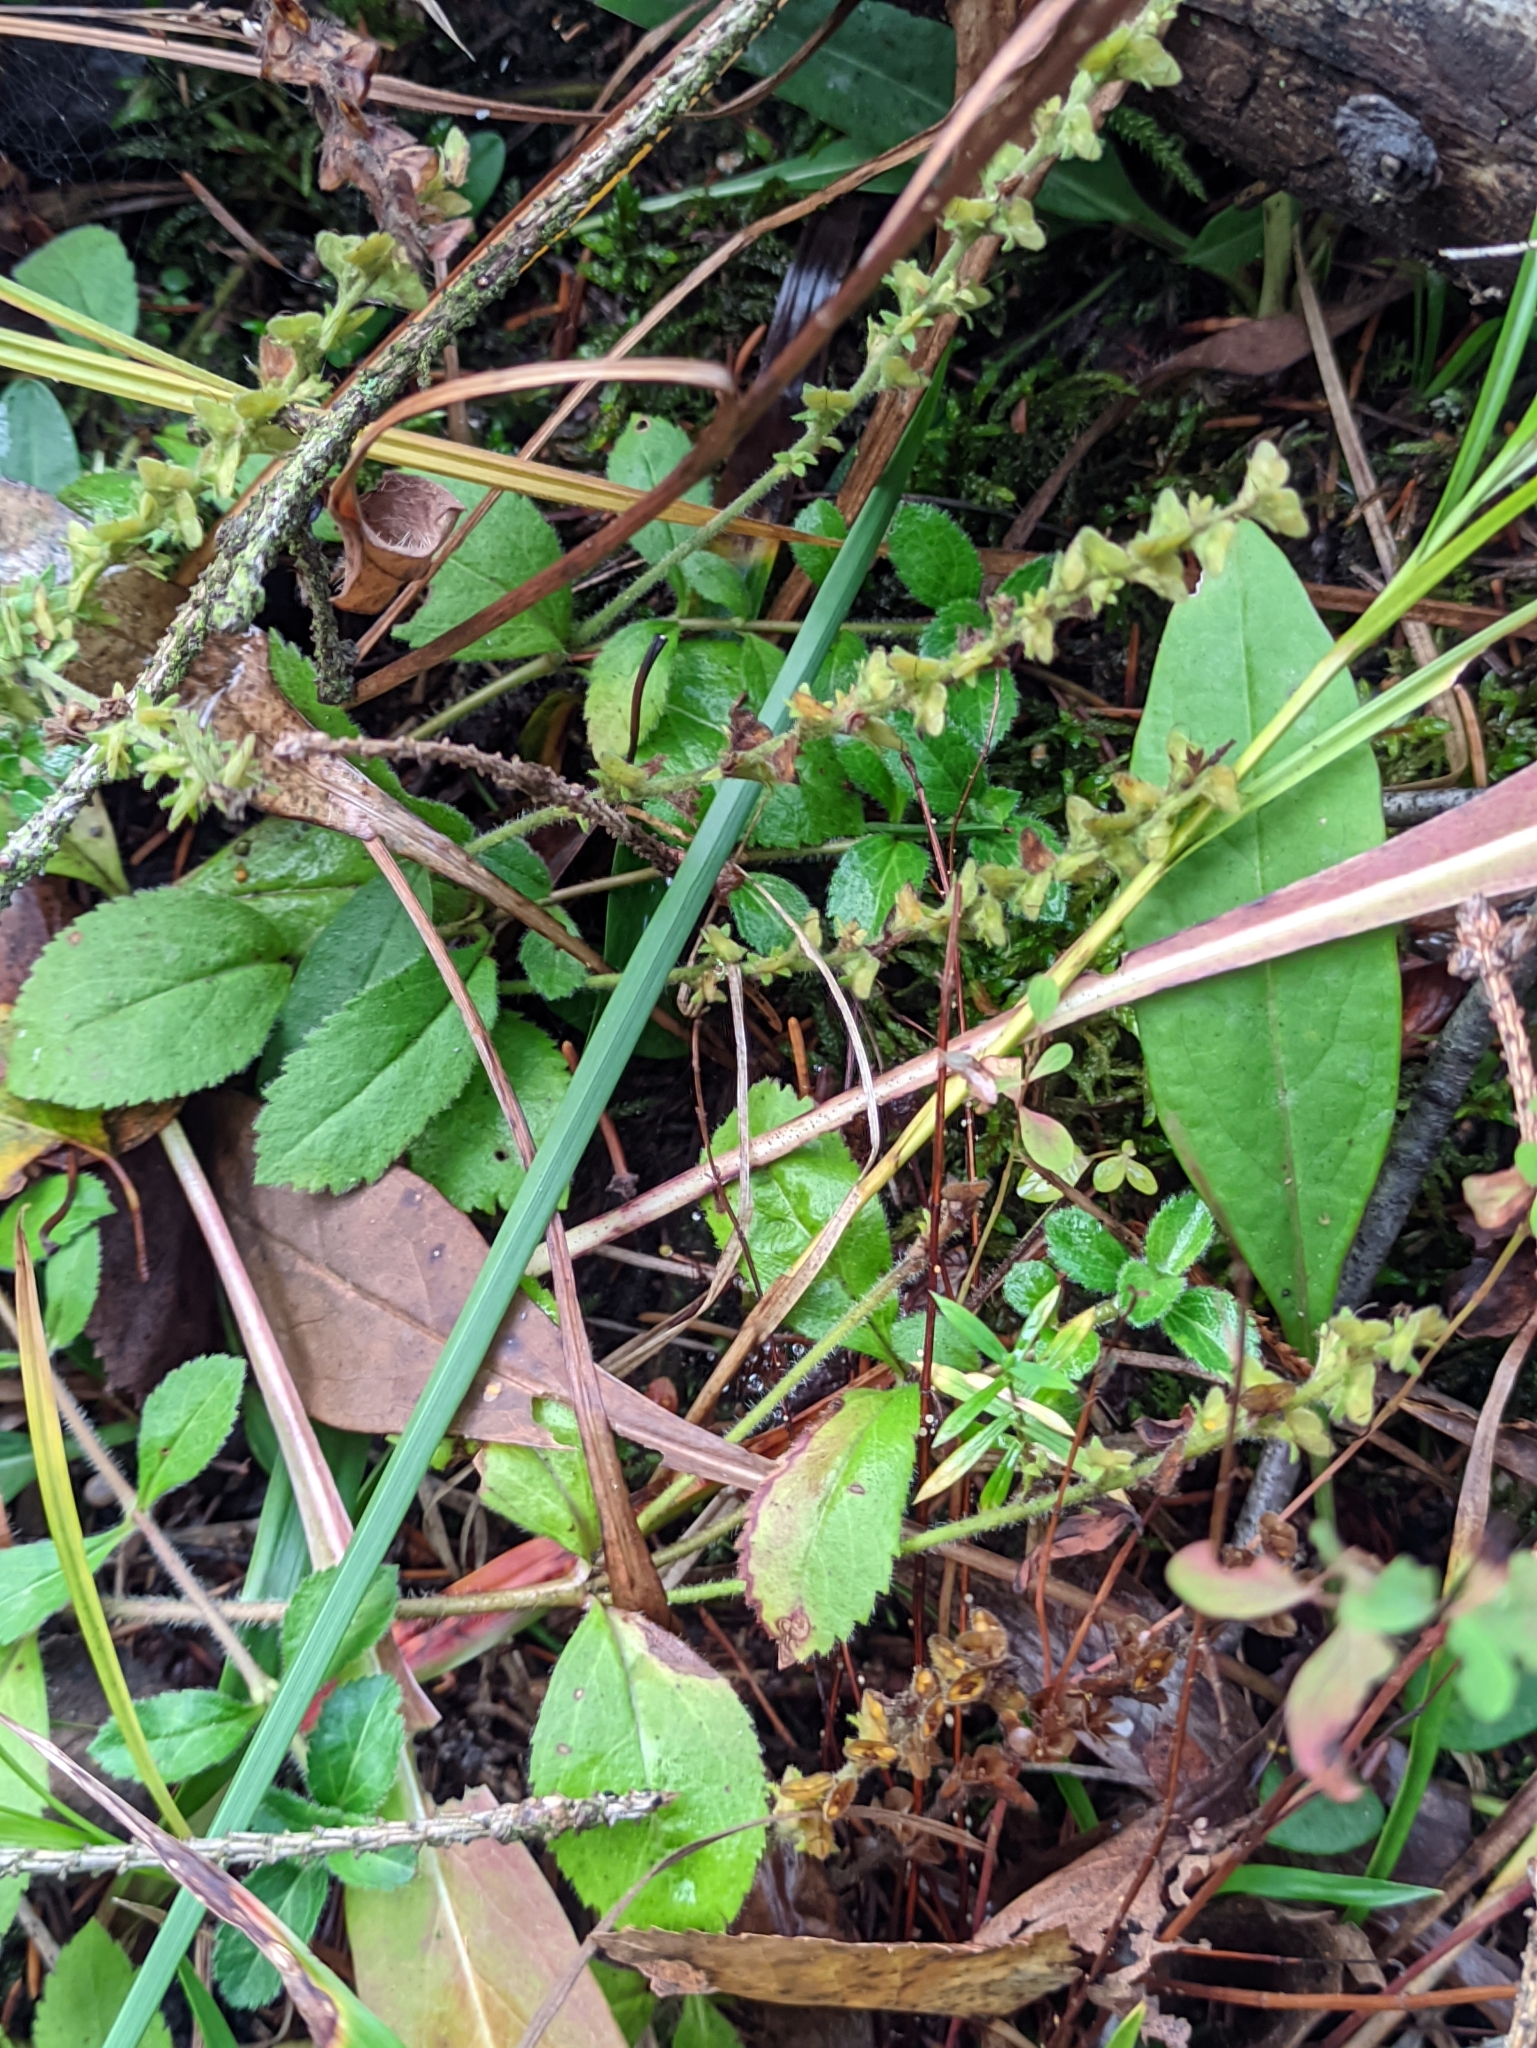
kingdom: Plantae
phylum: Tracheophyta
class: Magnoliopsida
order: Lamiales
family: Plantaginaceae
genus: Veronica
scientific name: Veronica officinalis
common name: Common speedwell
